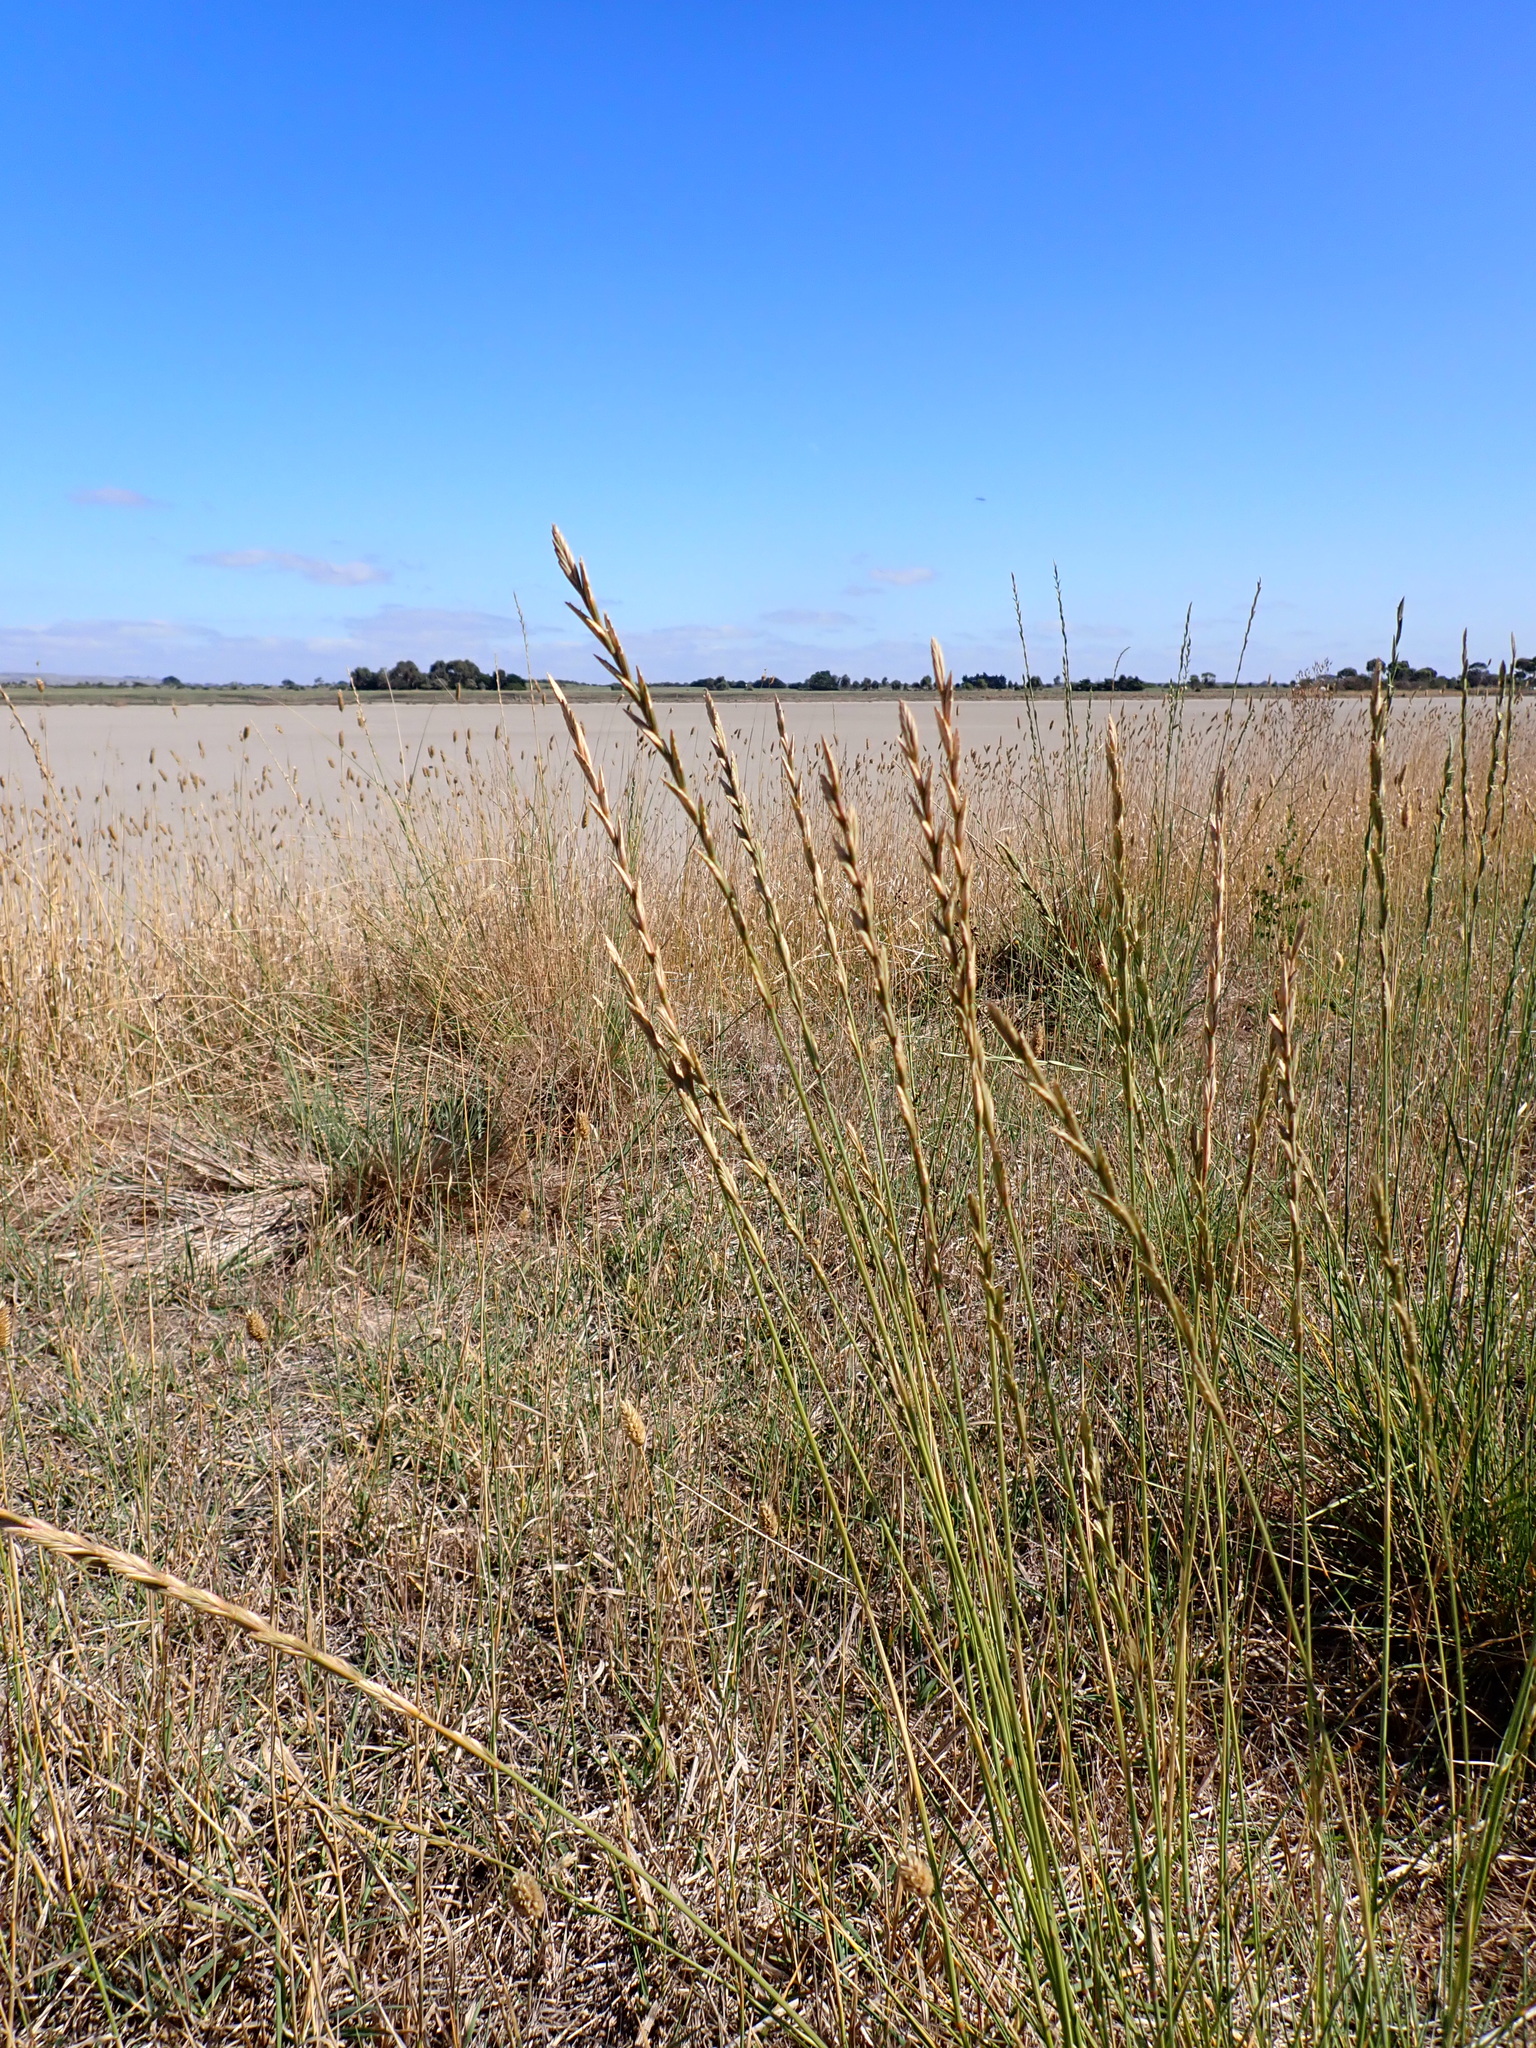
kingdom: Plantae
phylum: Tracheophyta
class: Liliopsida
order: Poales
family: Poaceae
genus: Thinopyrum
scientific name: Thinopyrum obtusiflorum
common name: Eurasian quackgrass
